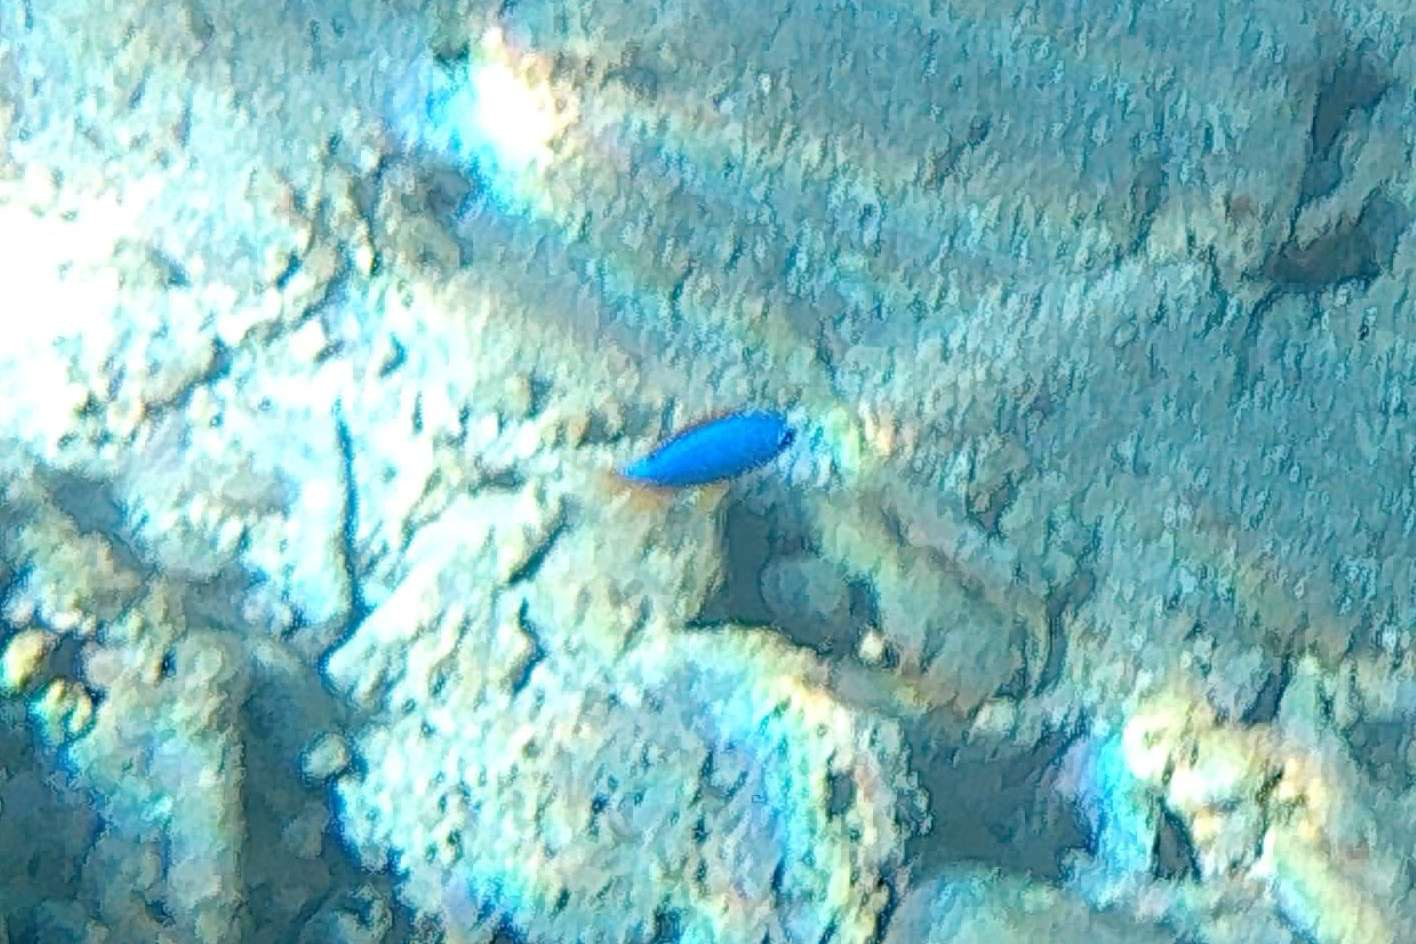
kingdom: Animalia
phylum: Chordata
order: Perciformes
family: Pomacentridae
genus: Chrysiptera
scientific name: Chrysiptera taupou
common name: Fiji damsel
